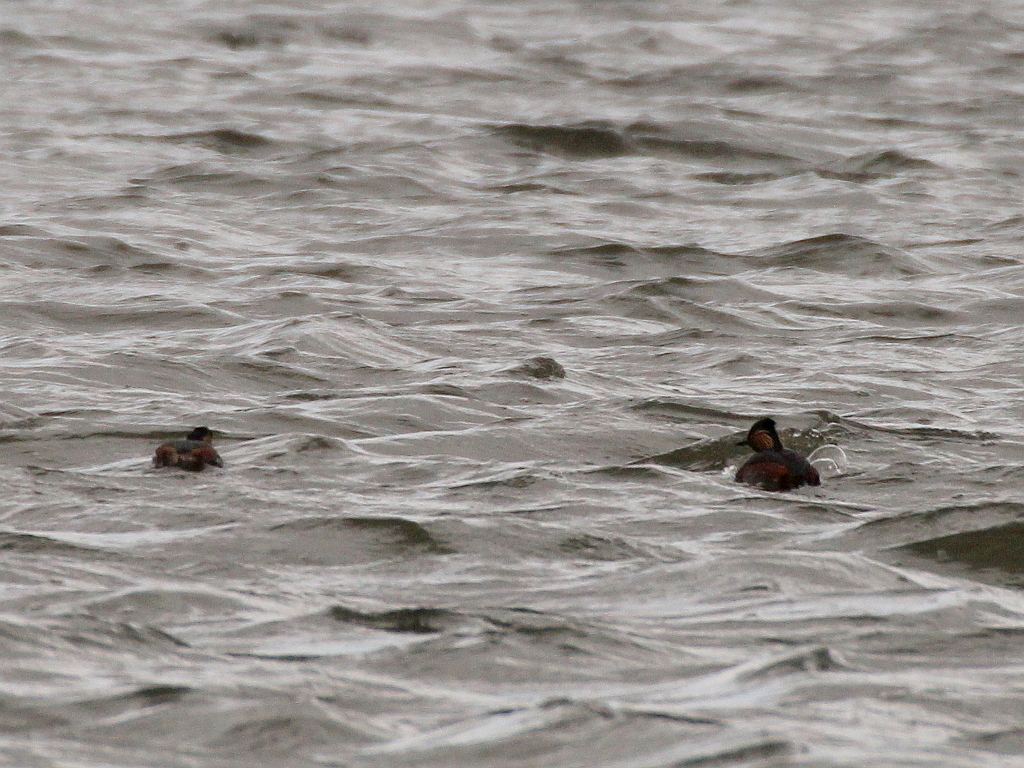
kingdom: Animalia
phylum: Chordata
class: Aves
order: Podicipediformes
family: Podicipedidae
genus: Podiceps
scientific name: Podiceps nigricollis
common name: Black-necked grebe
